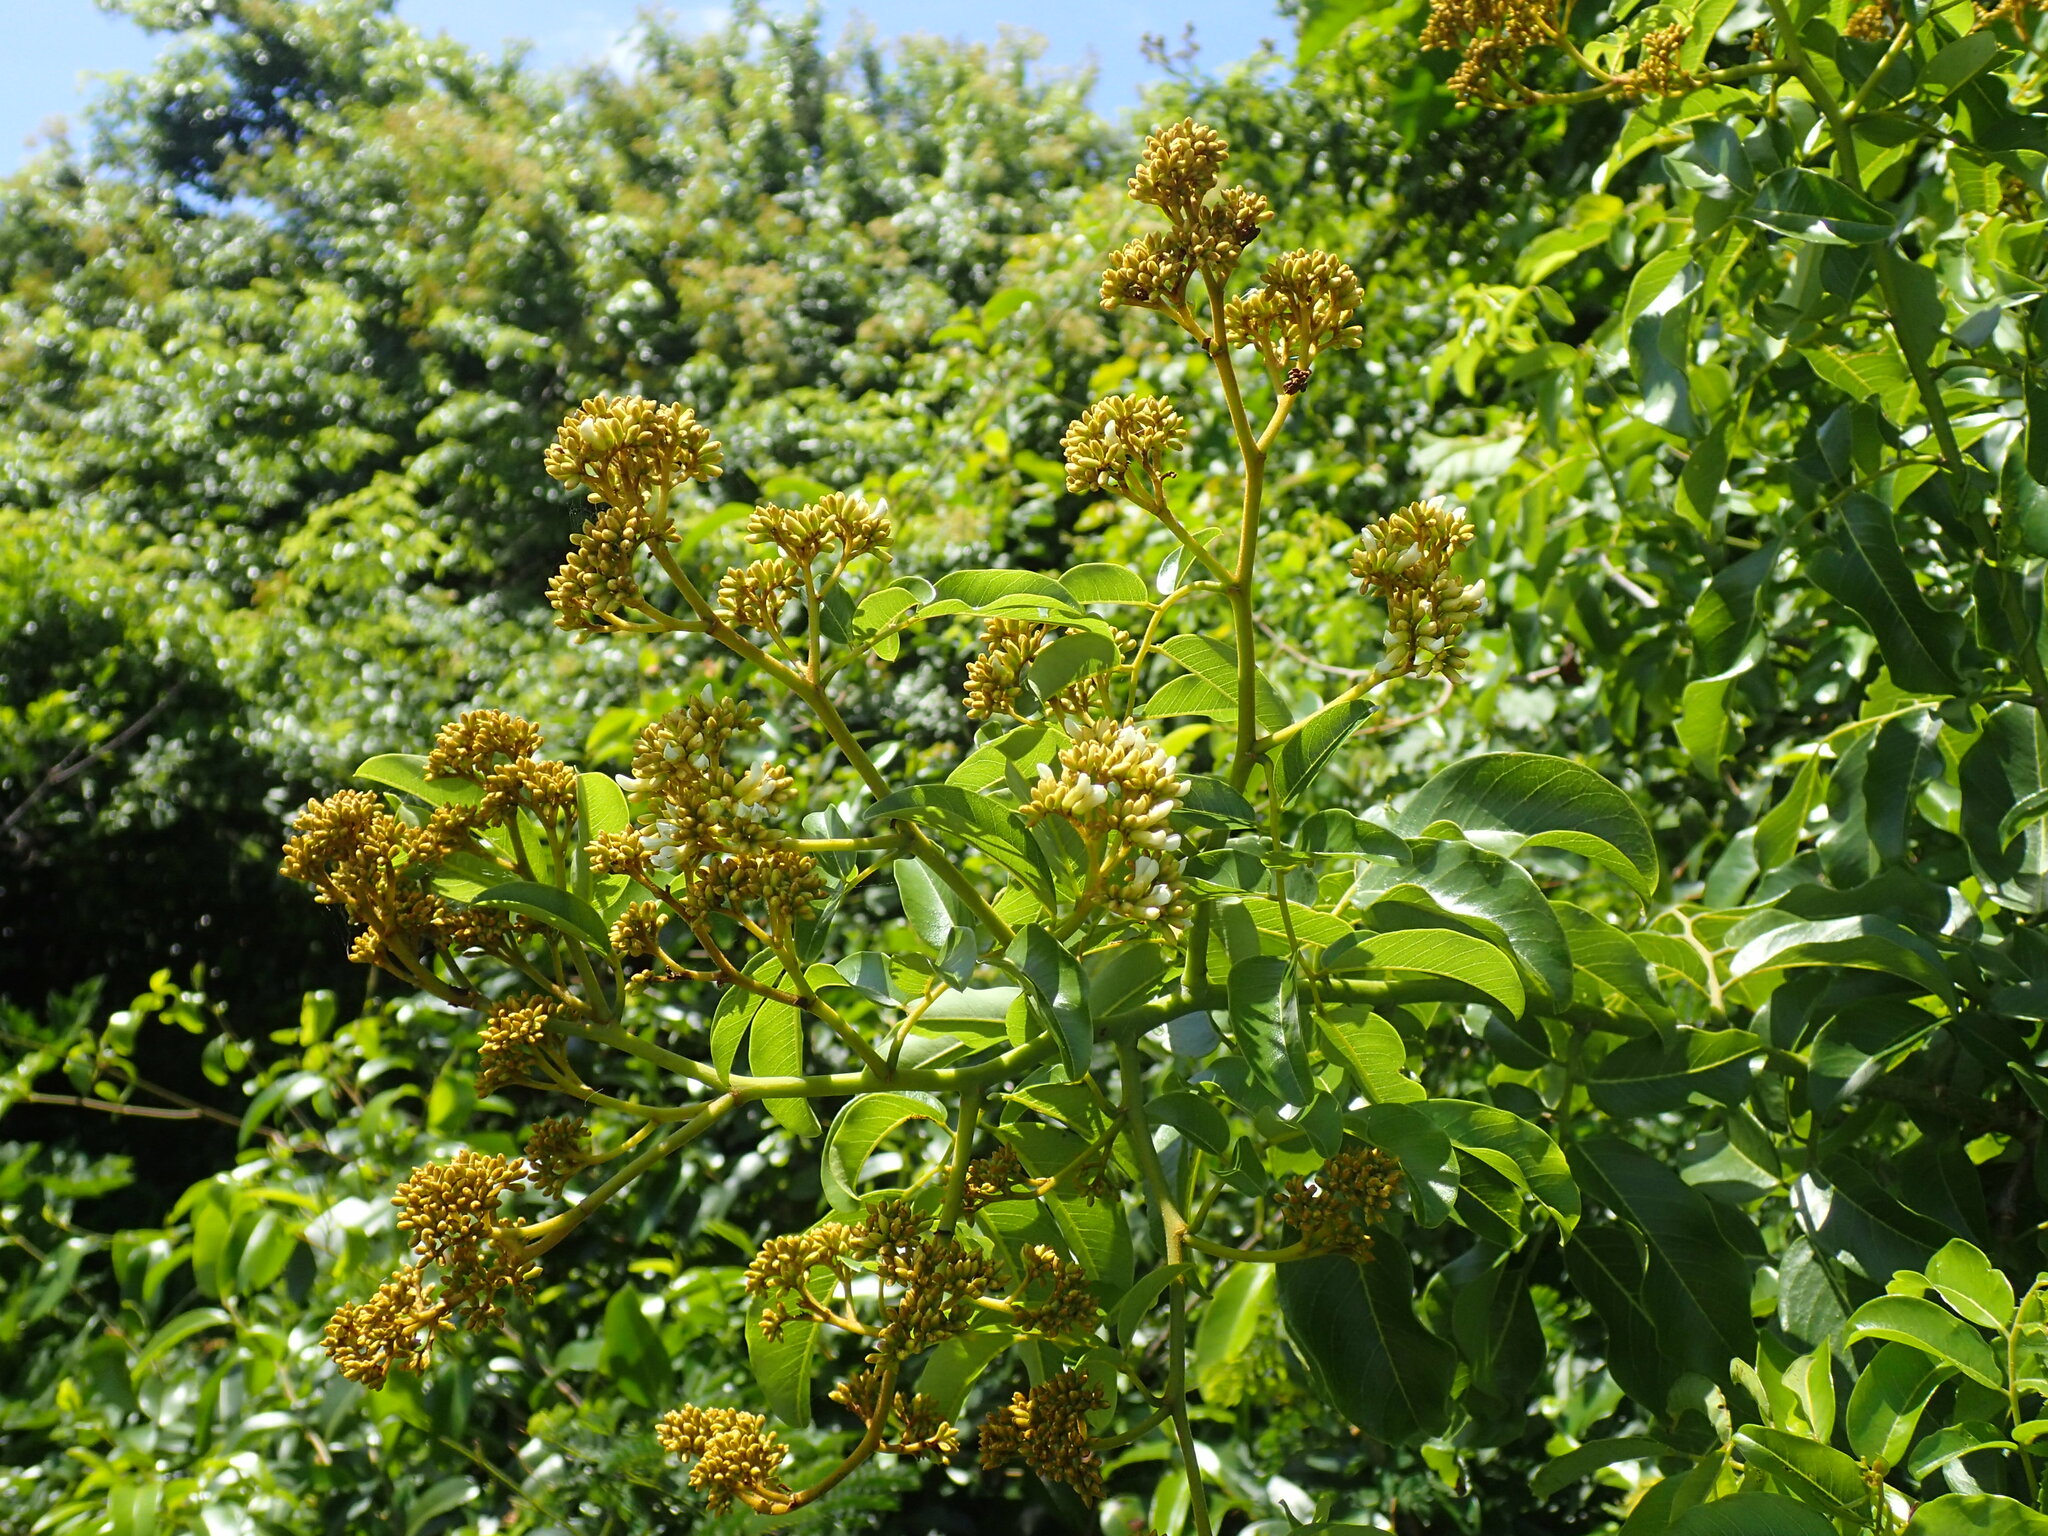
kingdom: Plantae
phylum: Tracheophyta
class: Magnoliopsida
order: Fabales
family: Fabaceae
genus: Dalbergia
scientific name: Dalbergia obovata
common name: Climbing flat-bean
